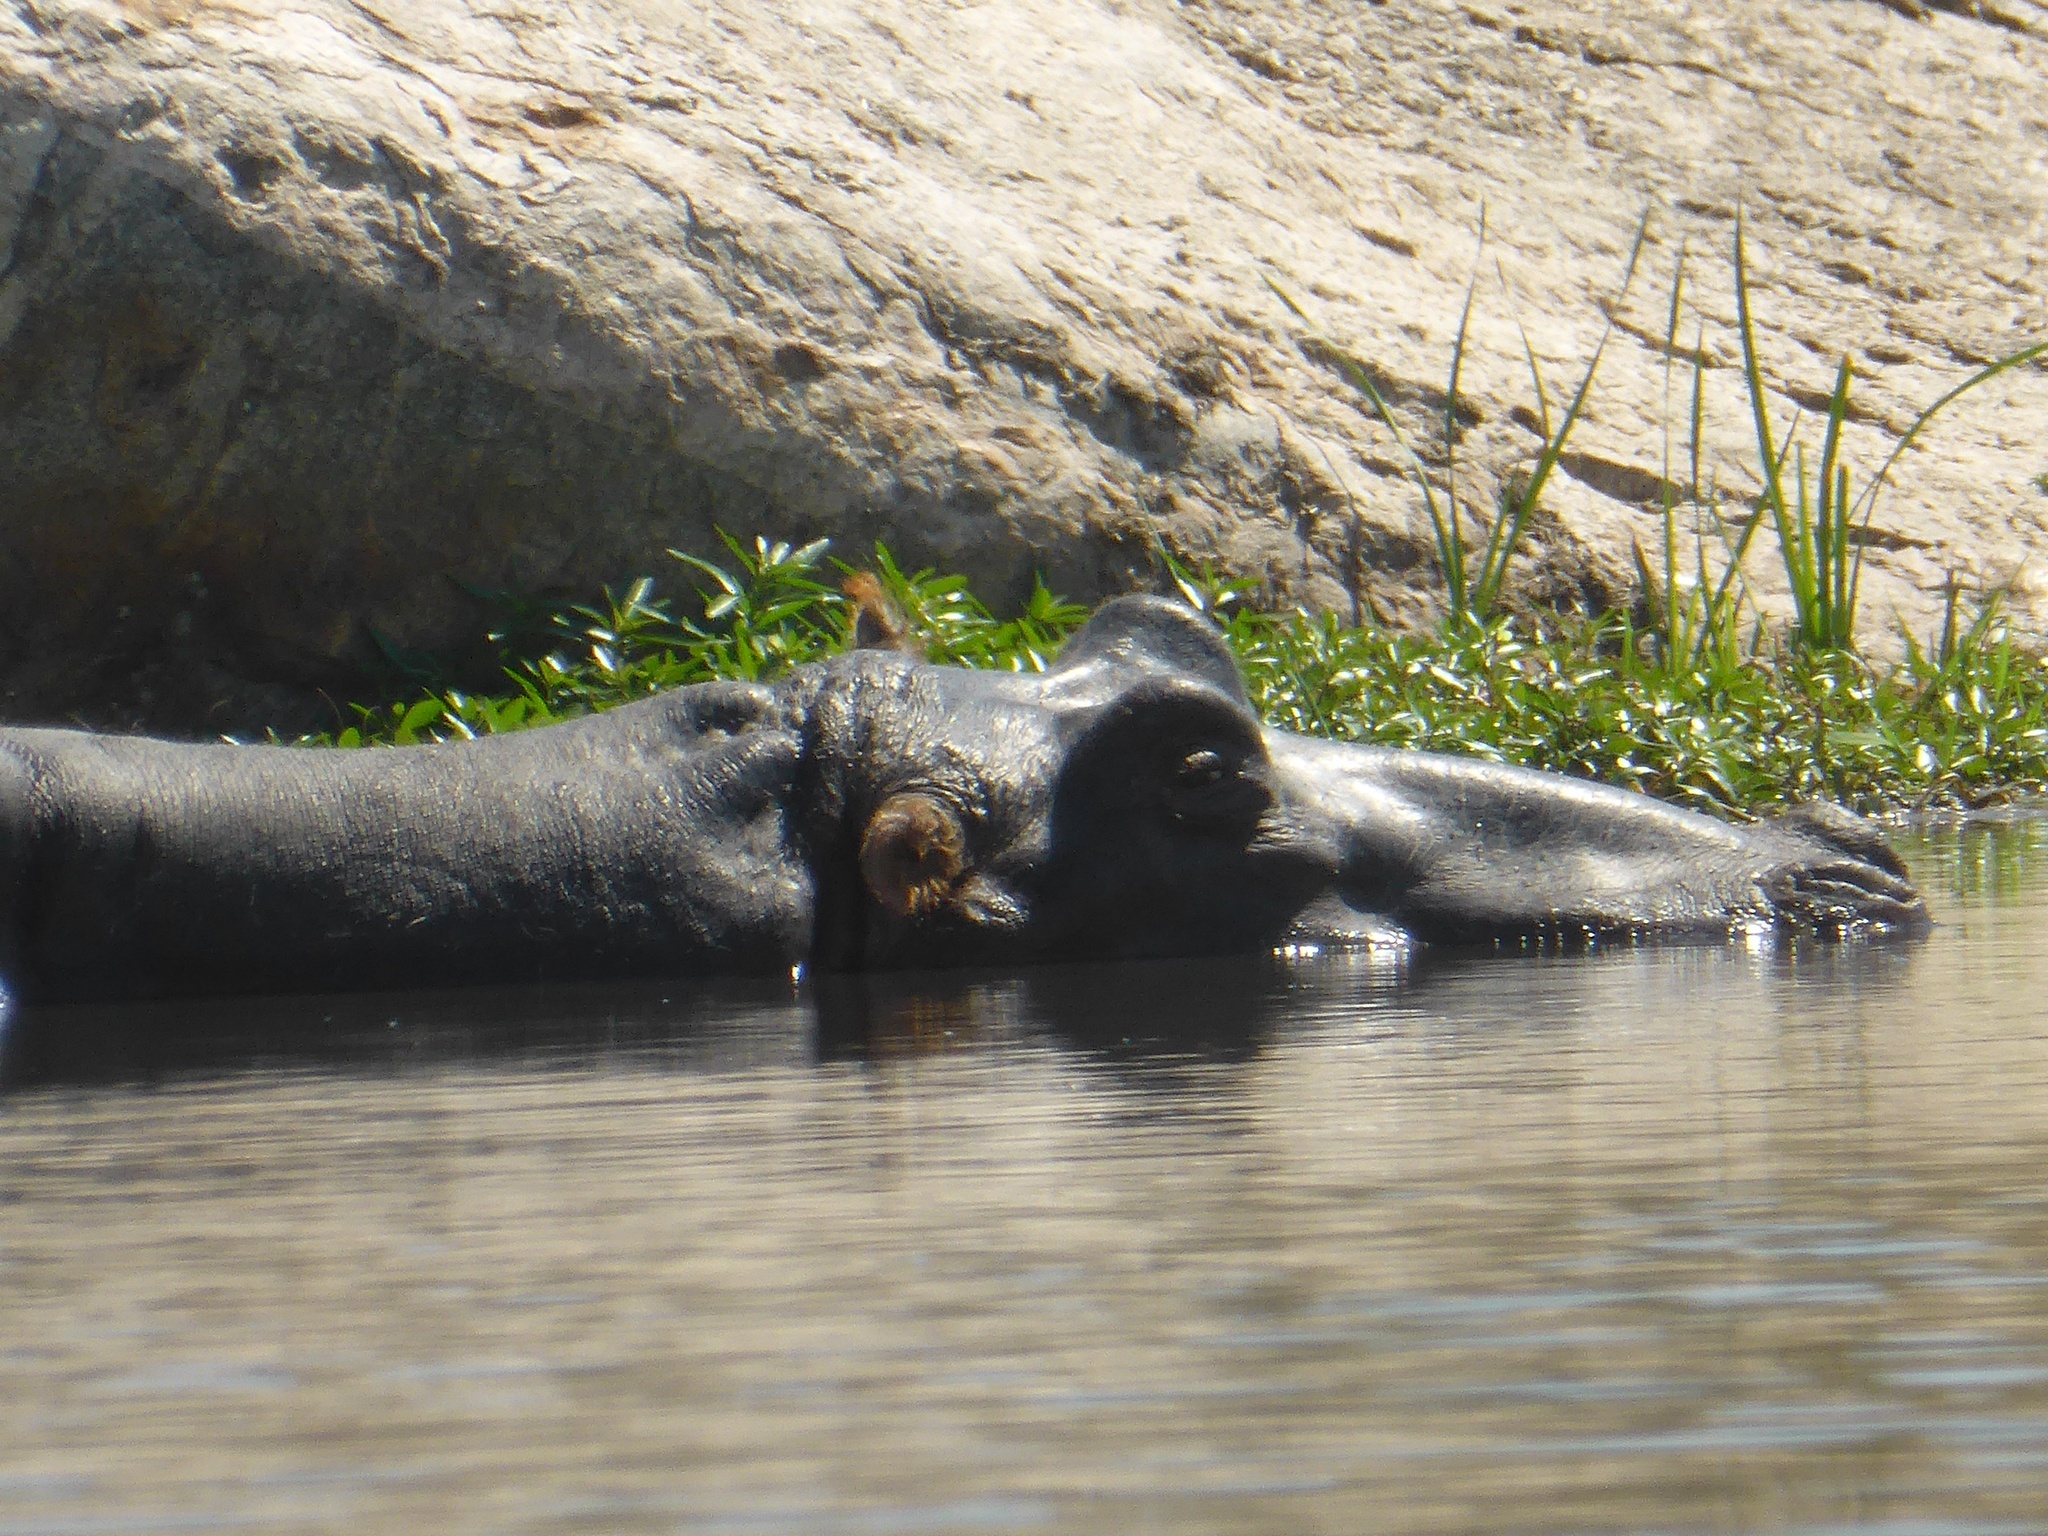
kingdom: Animalia
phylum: Chordata
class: Mammalia
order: Artiodactyla
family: Hippopotamidae
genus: Hippopotamus
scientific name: Hippopotamus amphibius
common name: Common hippopotamus
